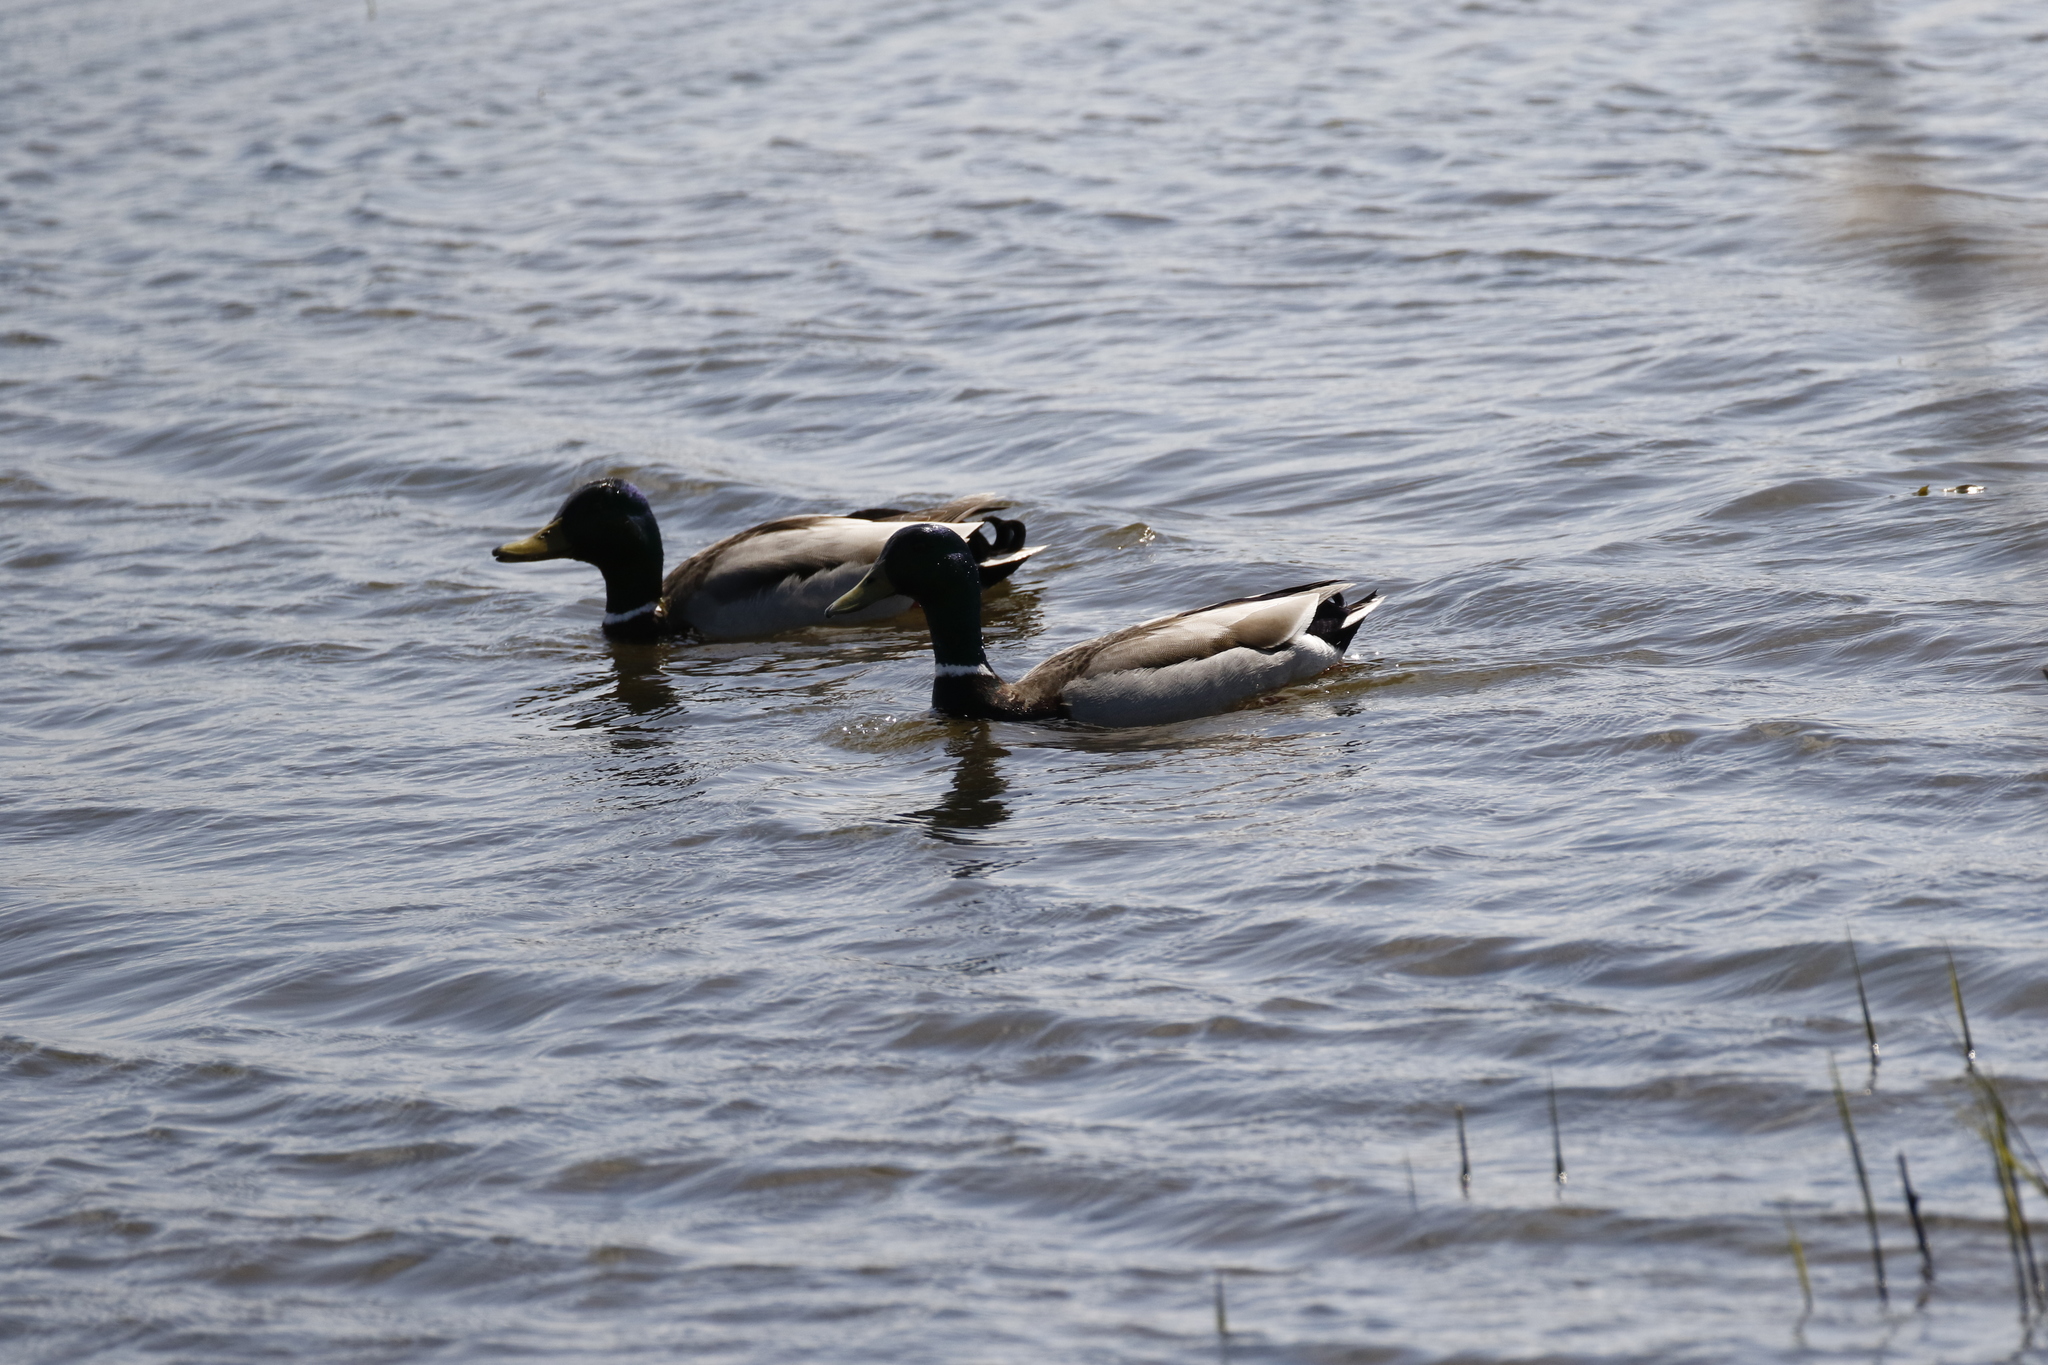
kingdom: Animalia
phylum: Chordata
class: Aves
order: Anseriformes
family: Anatidae
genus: Anas
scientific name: Anas platyrhynchos
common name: Mallard
